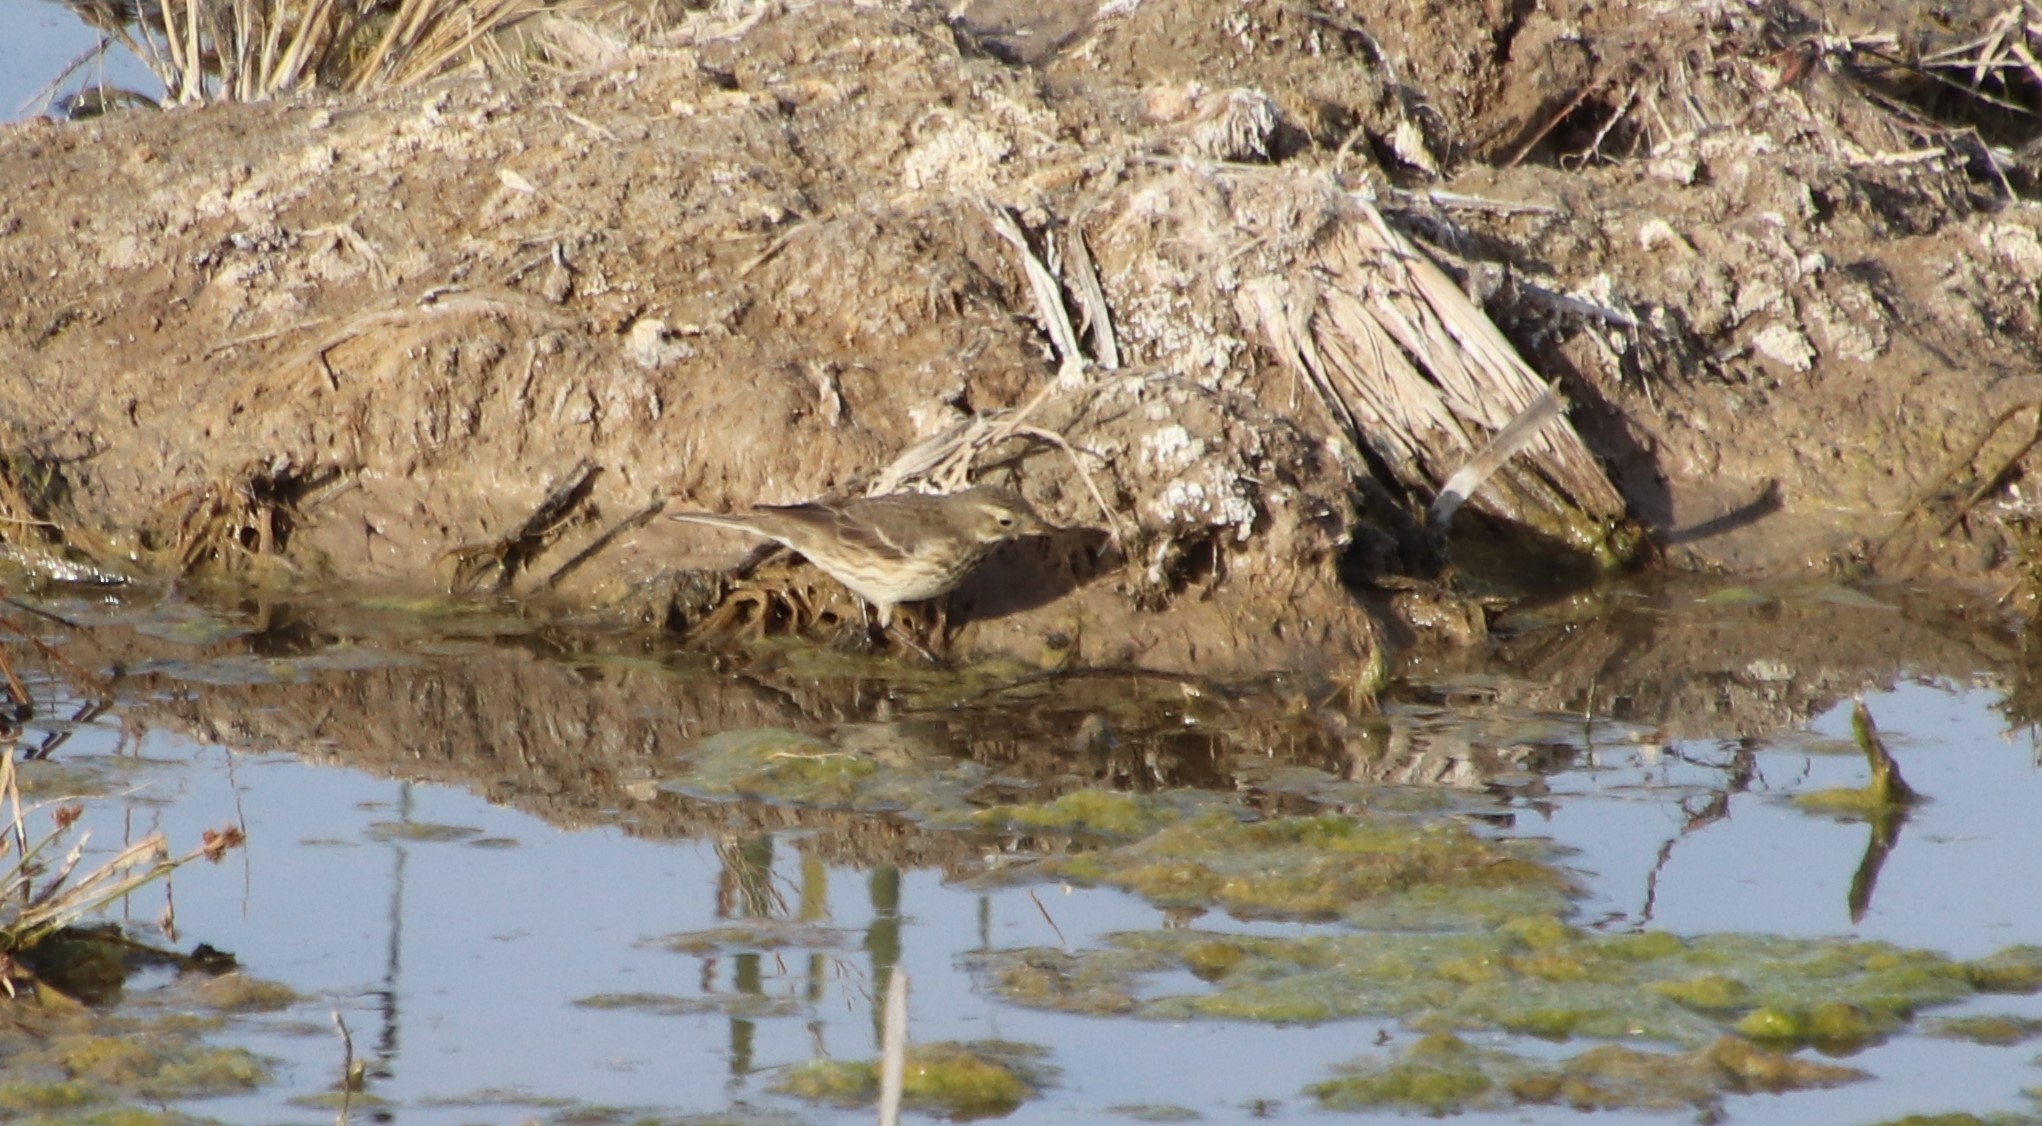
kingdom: Animalia
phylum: Chordata
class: Aves
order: Passeriformes
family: Motacillidae
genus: Anthus
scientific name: Anthus rubescens
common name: Buff-bellied pipit
